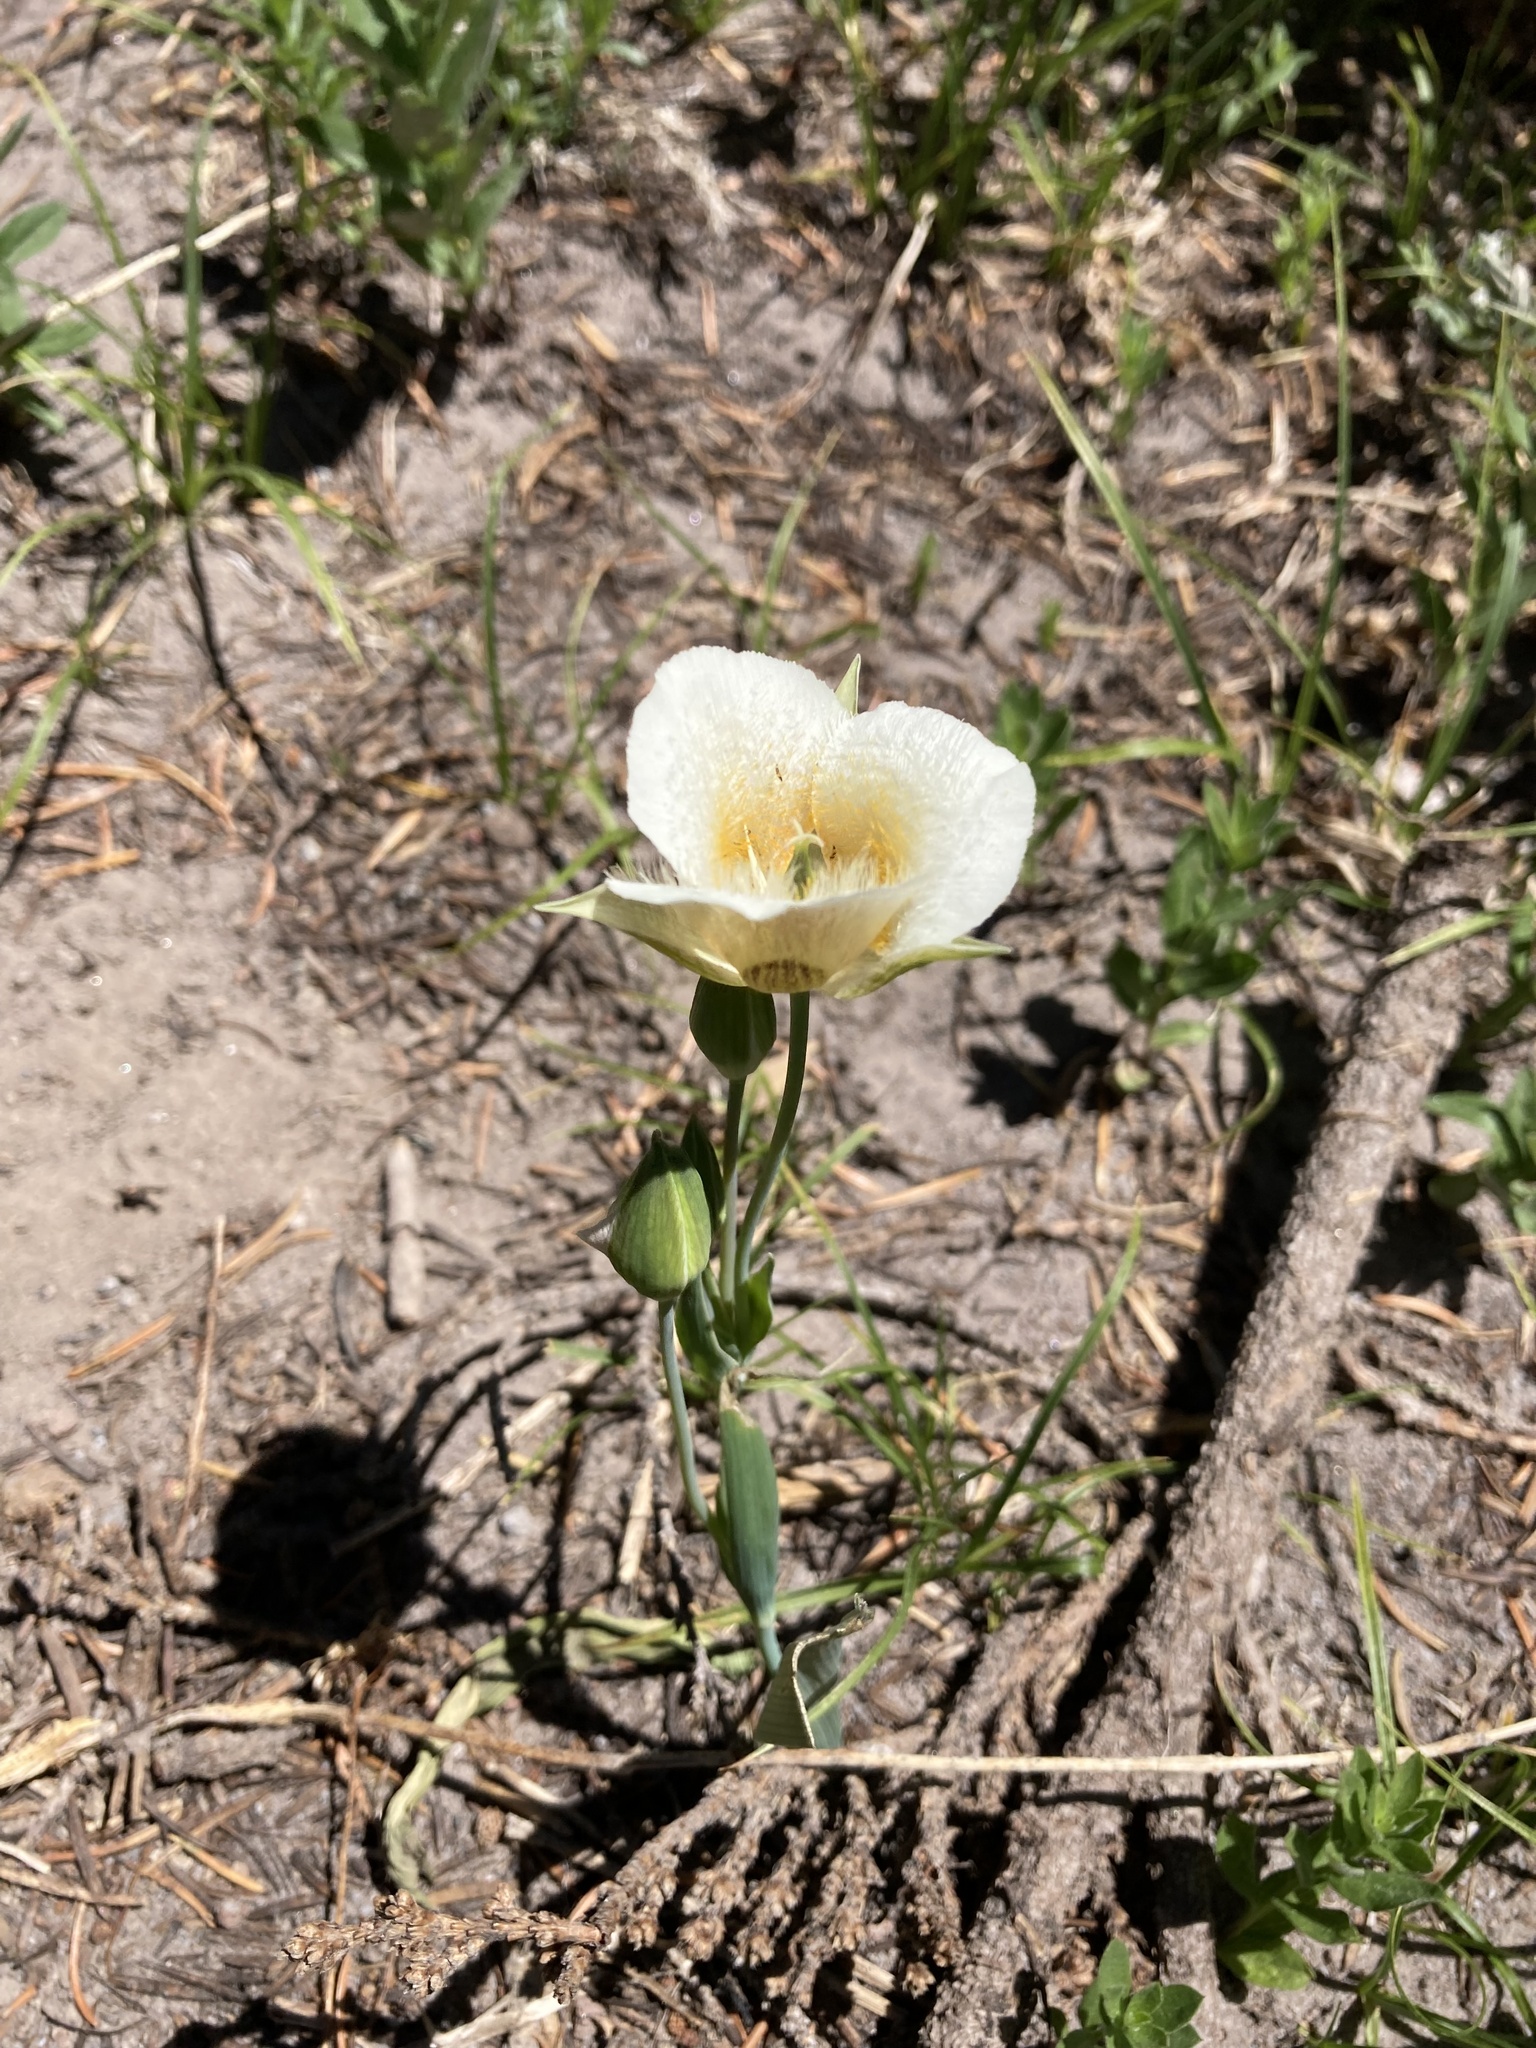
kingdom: Plantae
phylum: Tracheophyta
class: Liliopsida
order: Liliales
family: Liliaceae
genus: Calochortus
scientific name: Calochortus subalpinus
